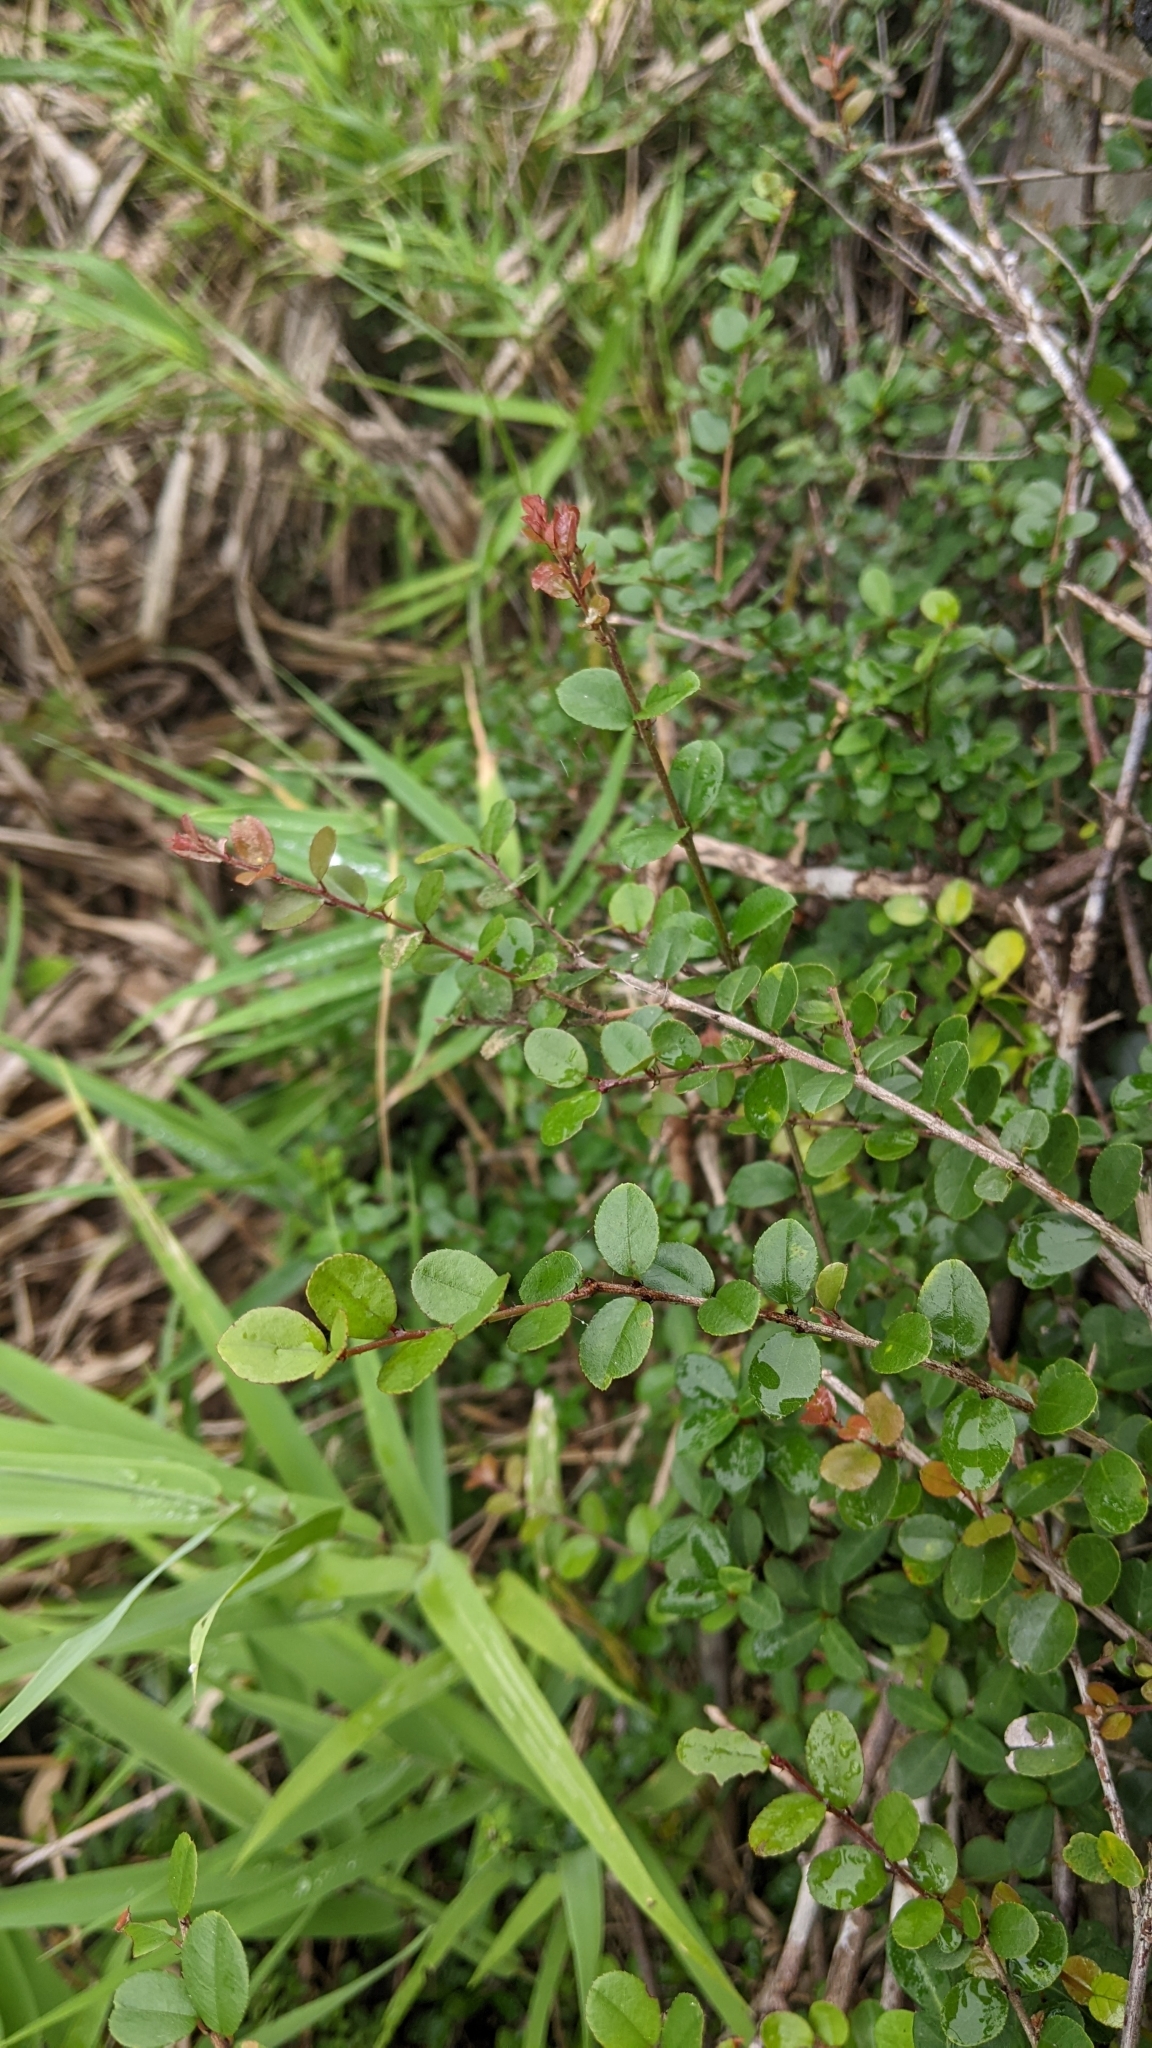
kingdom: Plantae
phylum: Tracheophyta
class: Magnoliopsida
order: Rosales
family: Rhamnaceae
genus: Sageretia
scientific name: Sageretia thea
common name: Pauper's-tea
